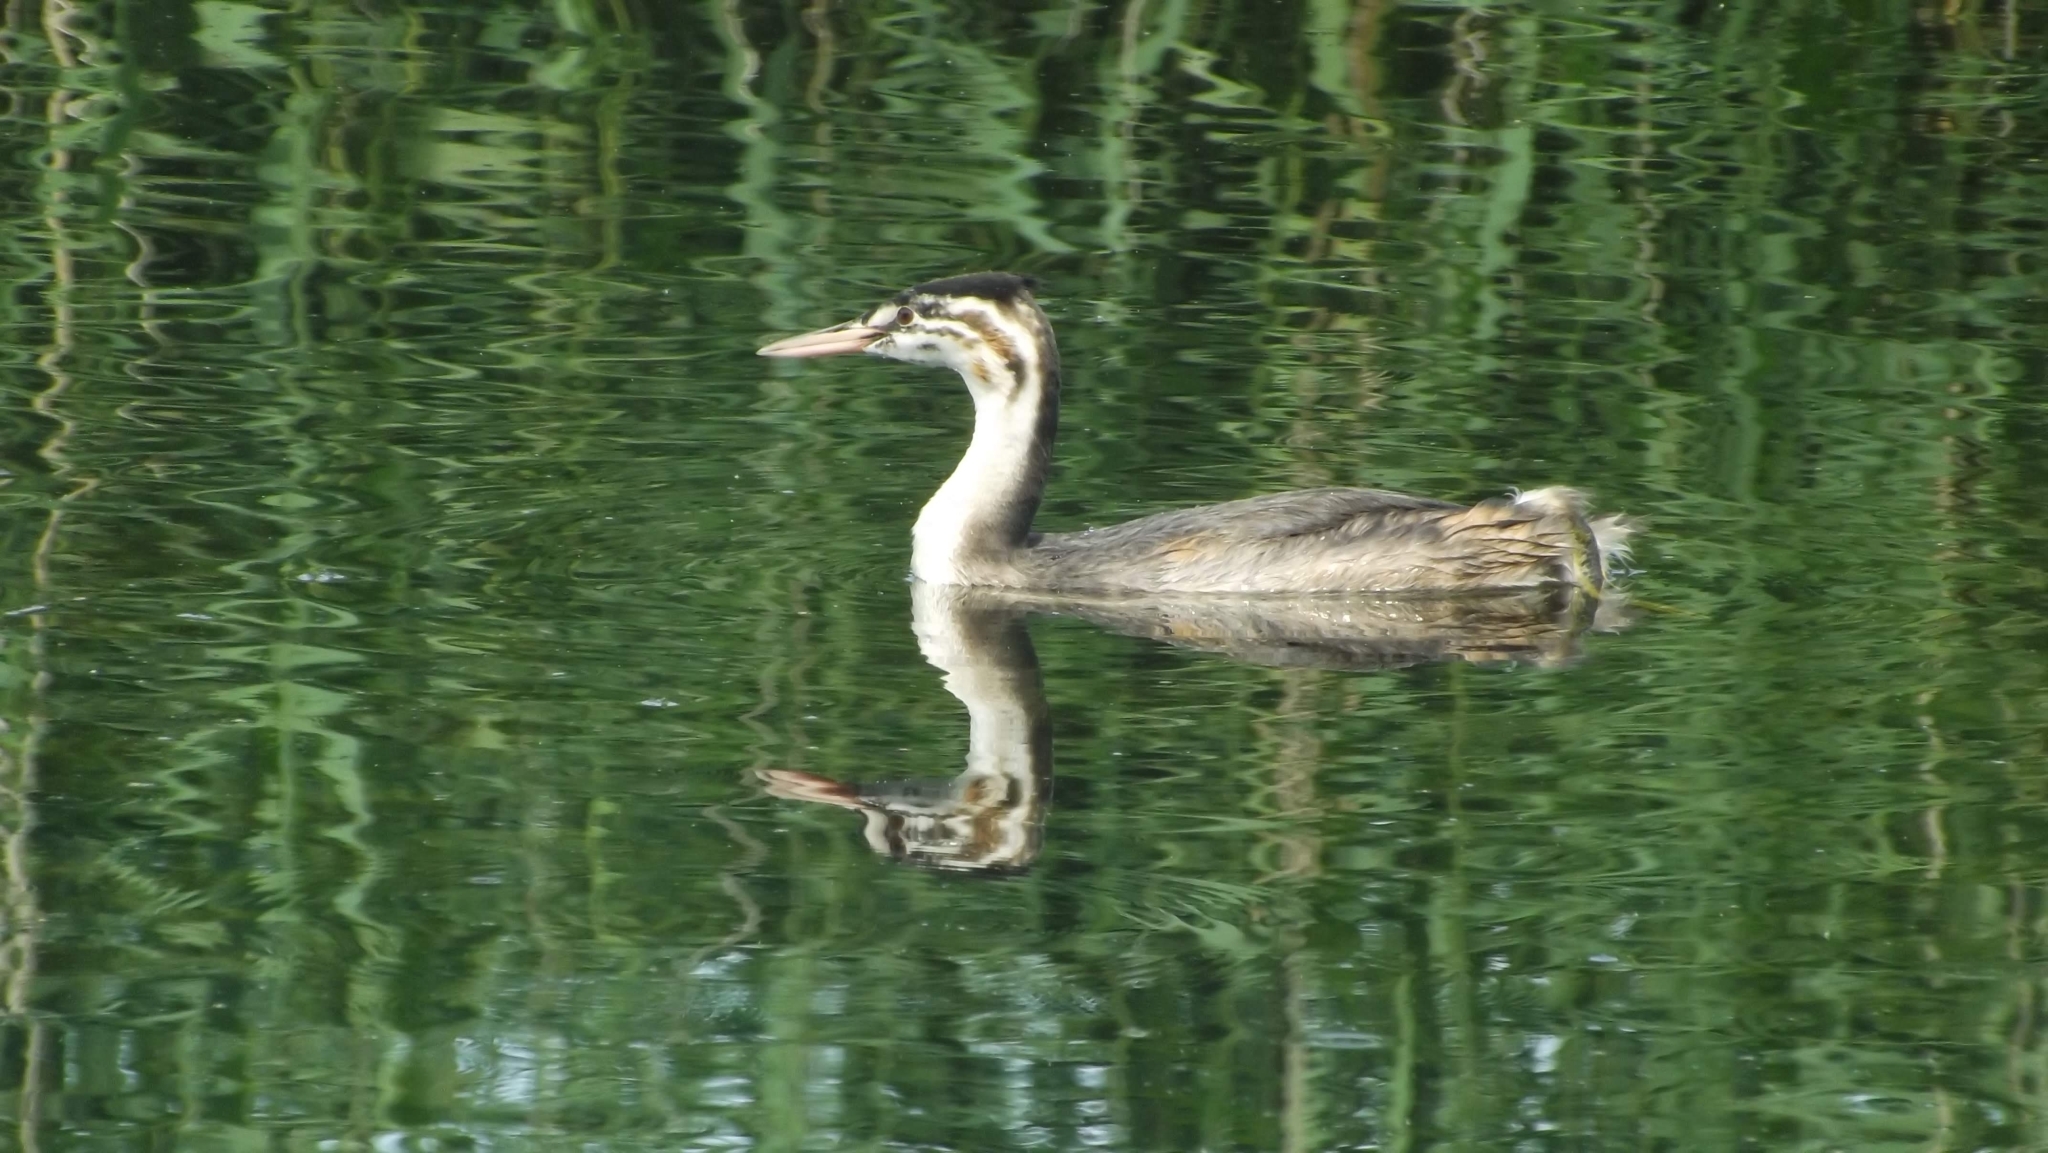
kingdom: Animalia
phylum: Chordata
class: Aves
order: Podicipediformes
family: Podicipedidae
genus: Podiceps
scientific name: Podiceps cristatus
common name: Great crested grebe
